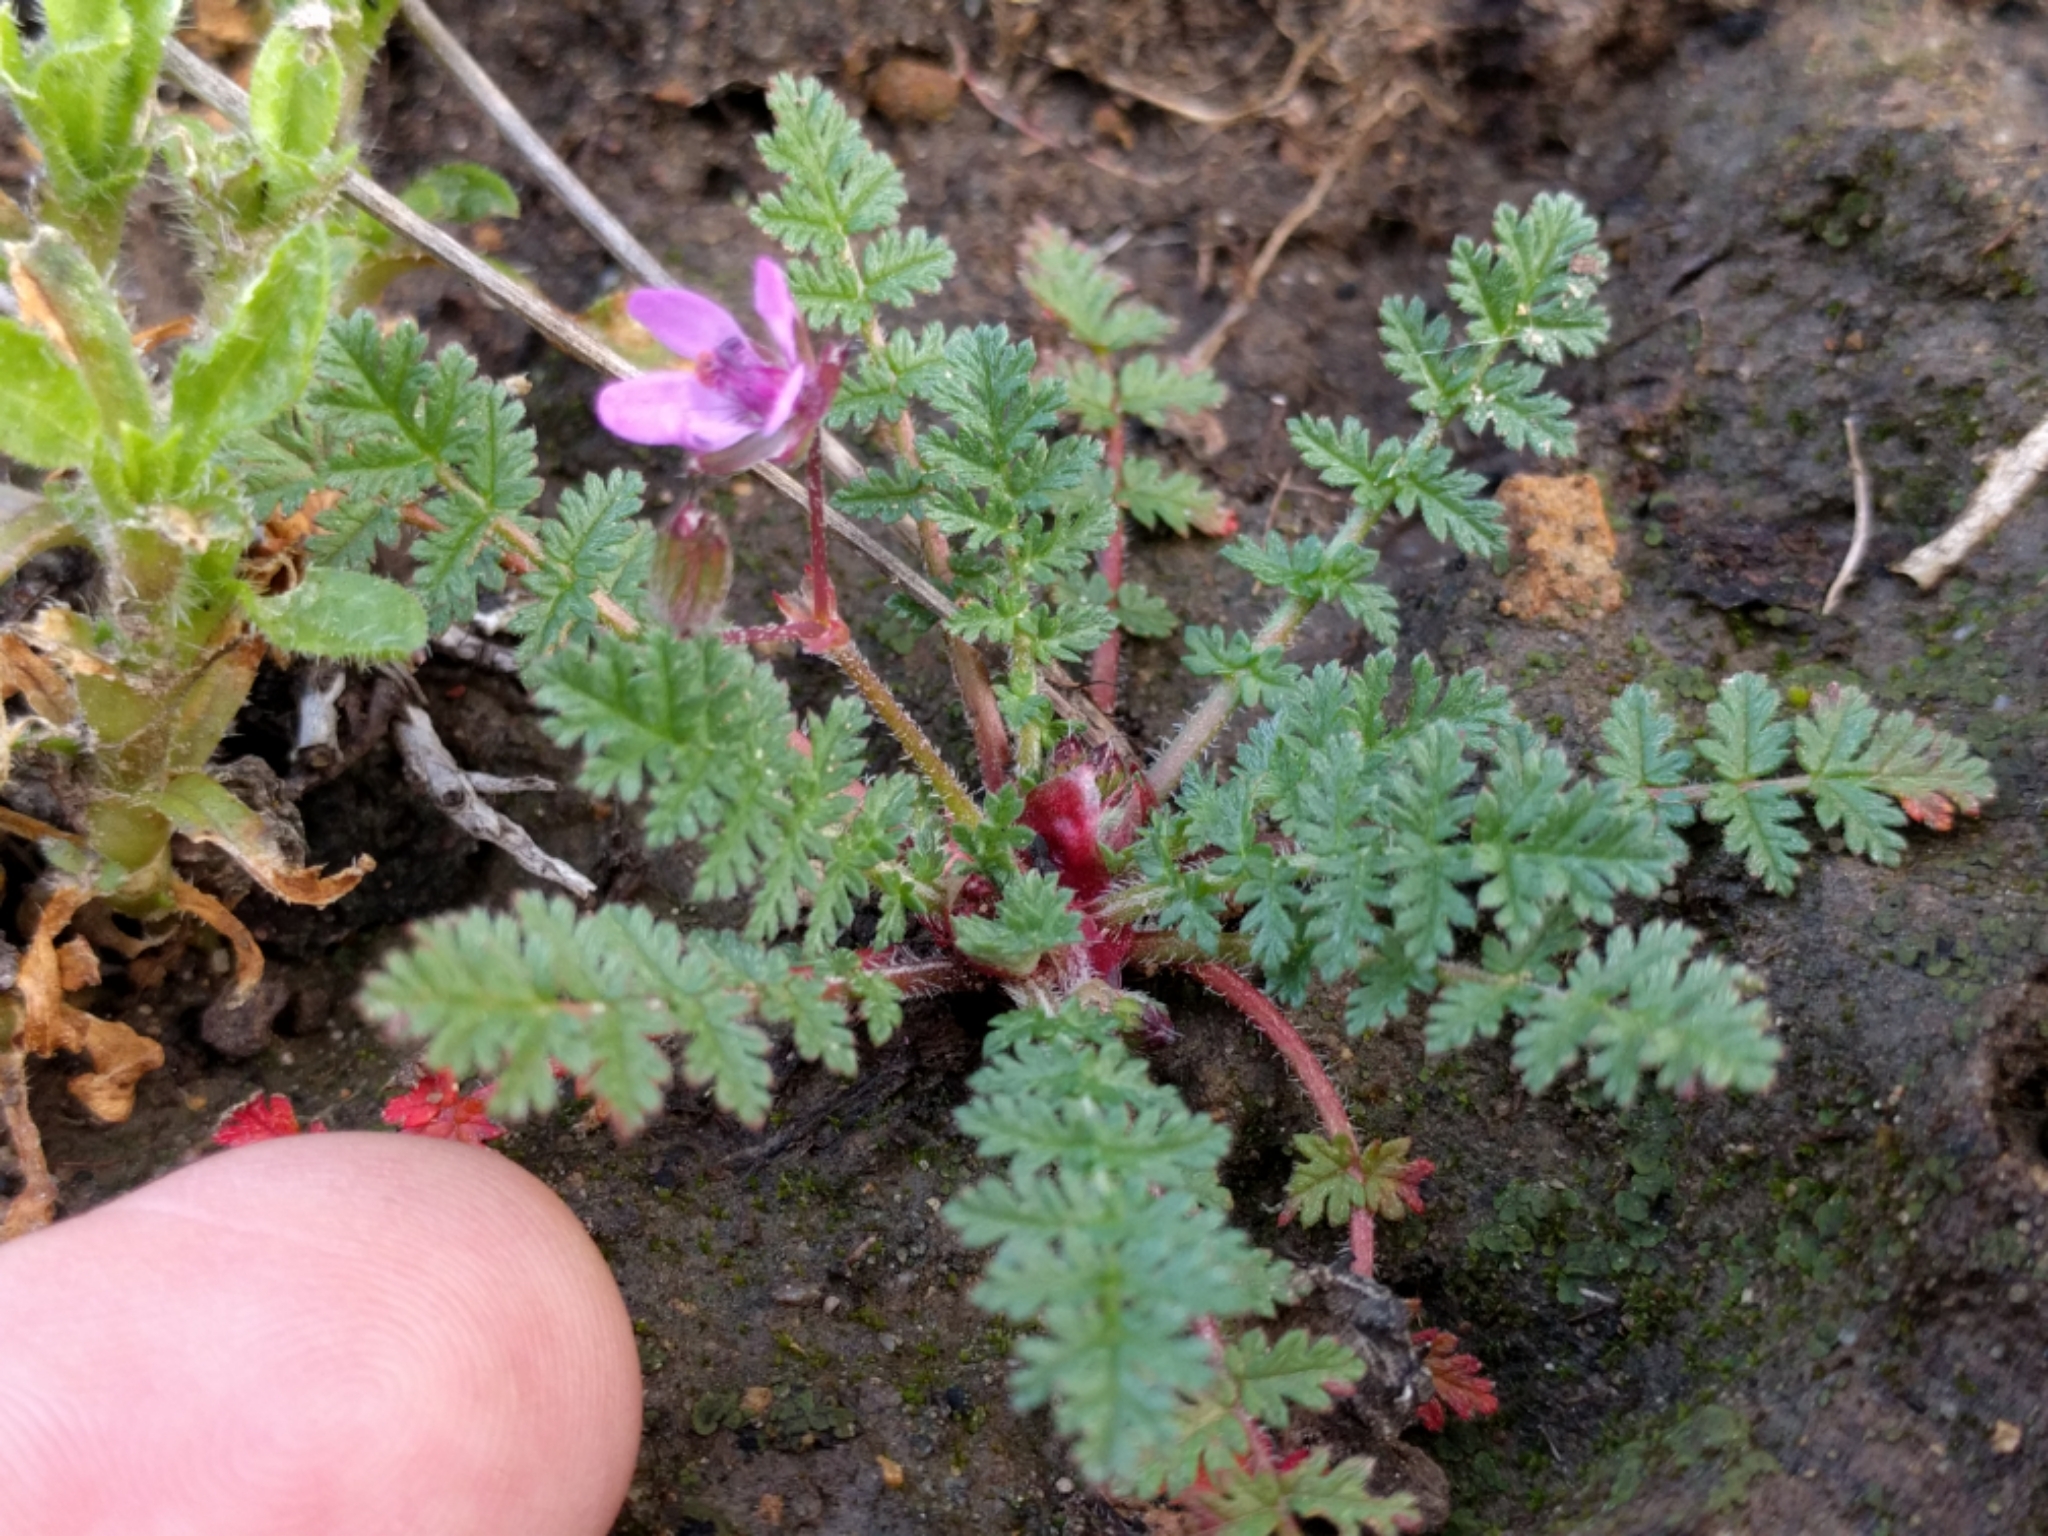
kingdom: Plantae
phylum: Tracheophyta
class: Magnoliopsida
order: Geraniales
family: Geraniaceae
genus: Erodium
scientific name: Erodium cicutarium
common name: Common stork's-bill
